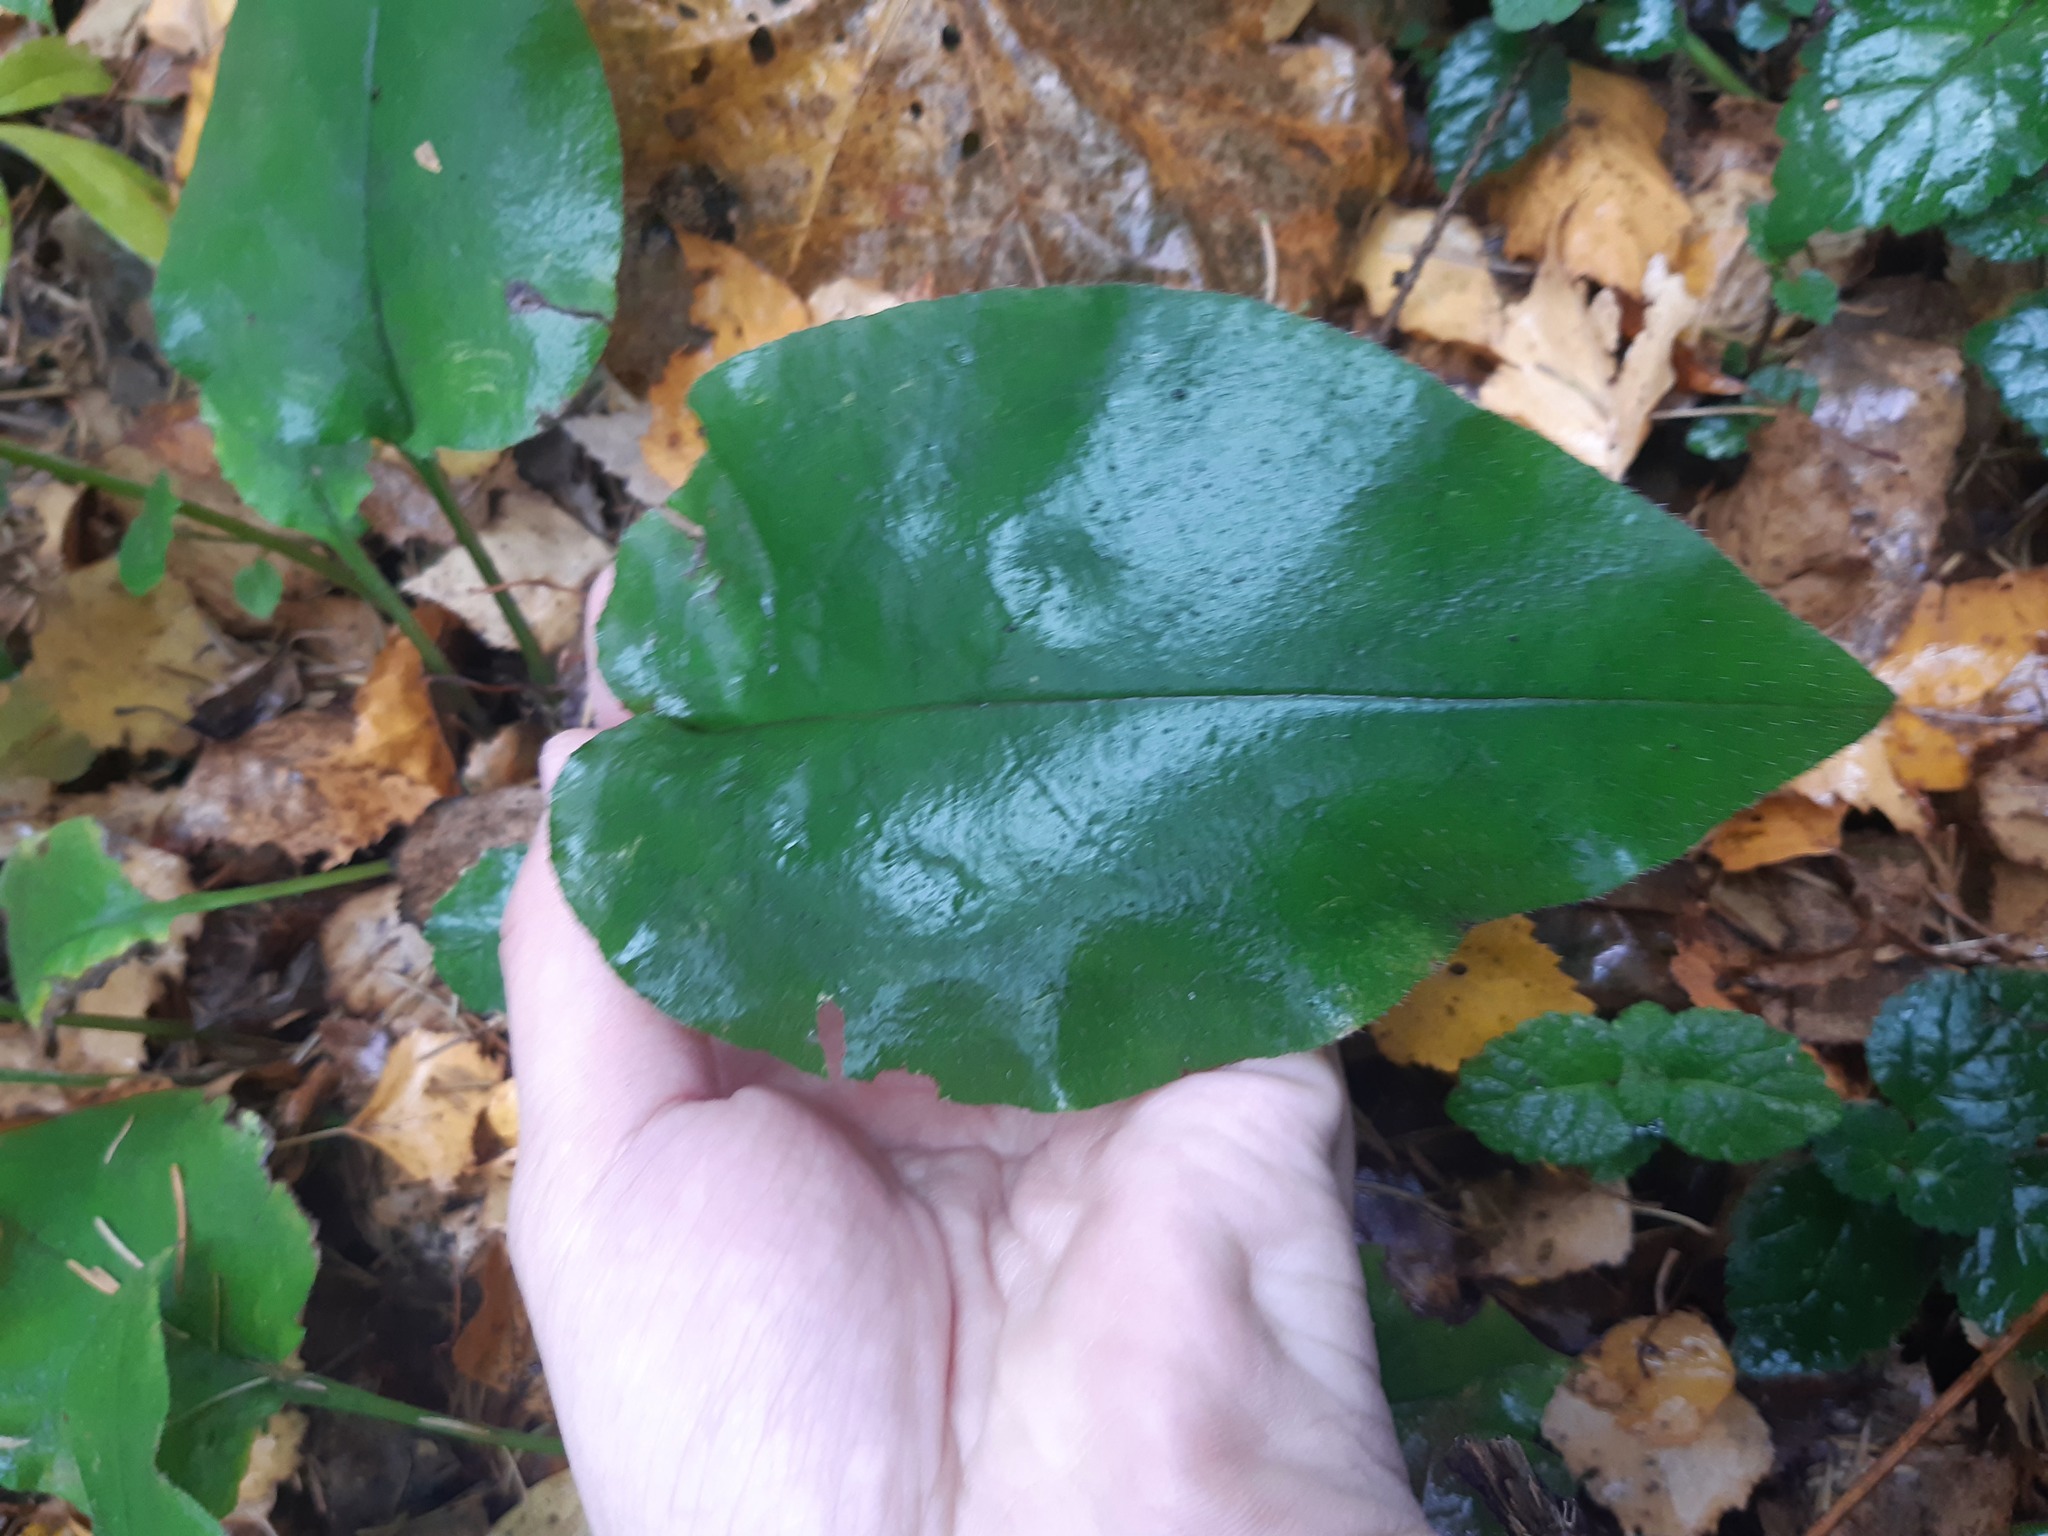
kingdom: Plantae
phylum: Tracheophyta
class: Magnoliopsida
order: Boraginales
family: Boraginaceae
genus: Pulmonaria
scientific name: Pulmonaria obscura
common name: Suffolk lungwort
